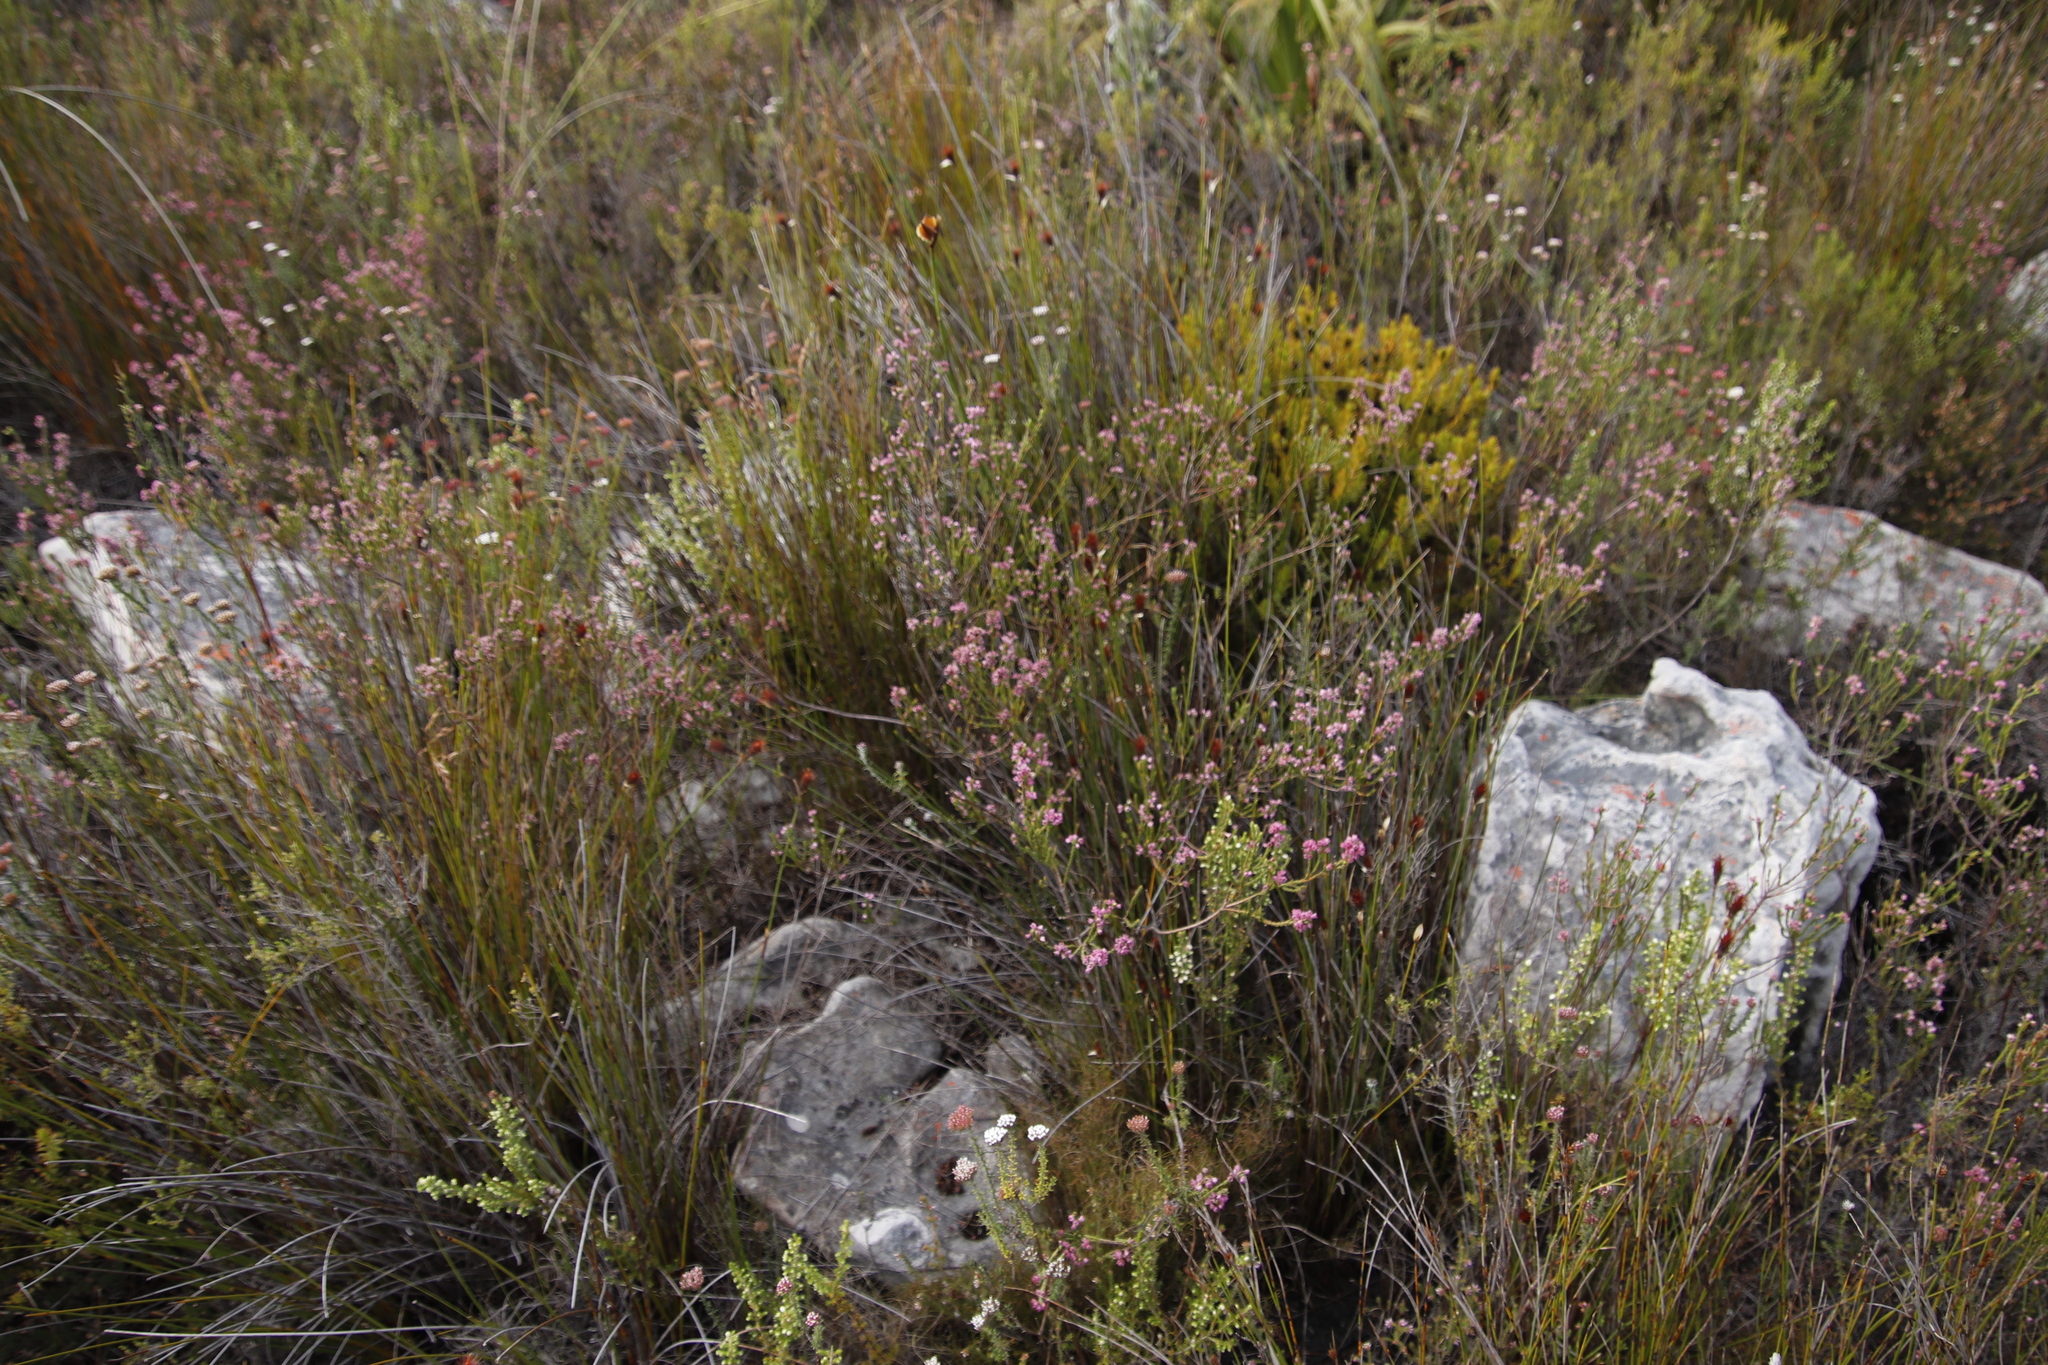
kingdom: Plantae
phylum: Tracheophyta
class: Magnoliopsida
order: Ericales
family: Ericaceae
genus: Erica
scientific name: Erica corifolia
